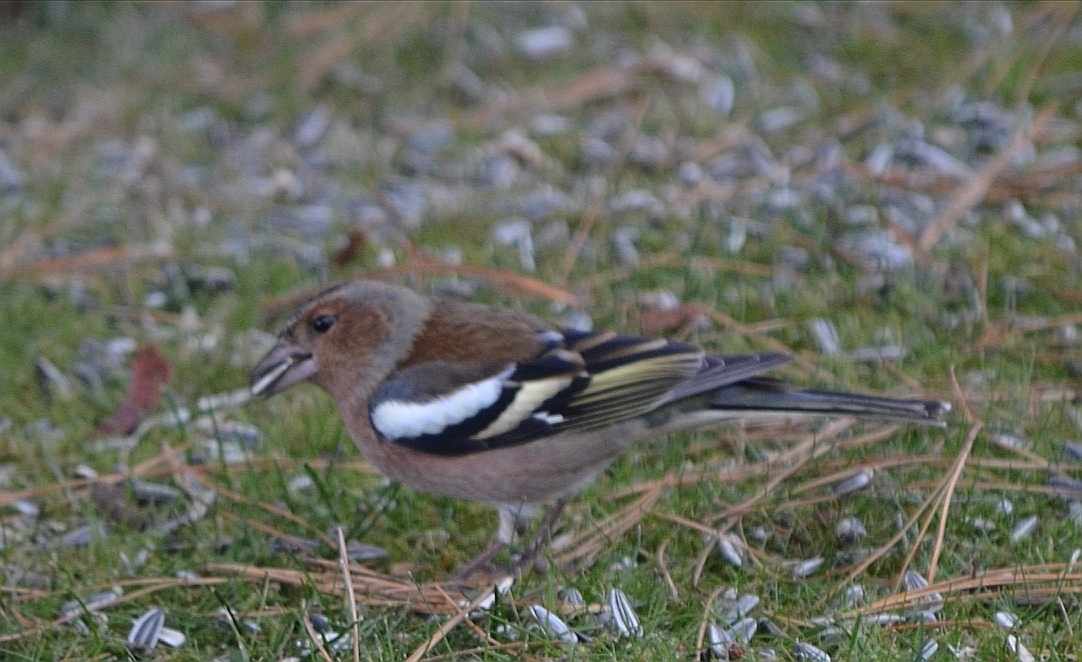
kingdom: Animalia
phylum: Chordata
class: Aves
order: Passeriformes
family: Fringillidae
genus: Fringilla
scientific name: Fringilla coelebs
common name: Common chaffinch
